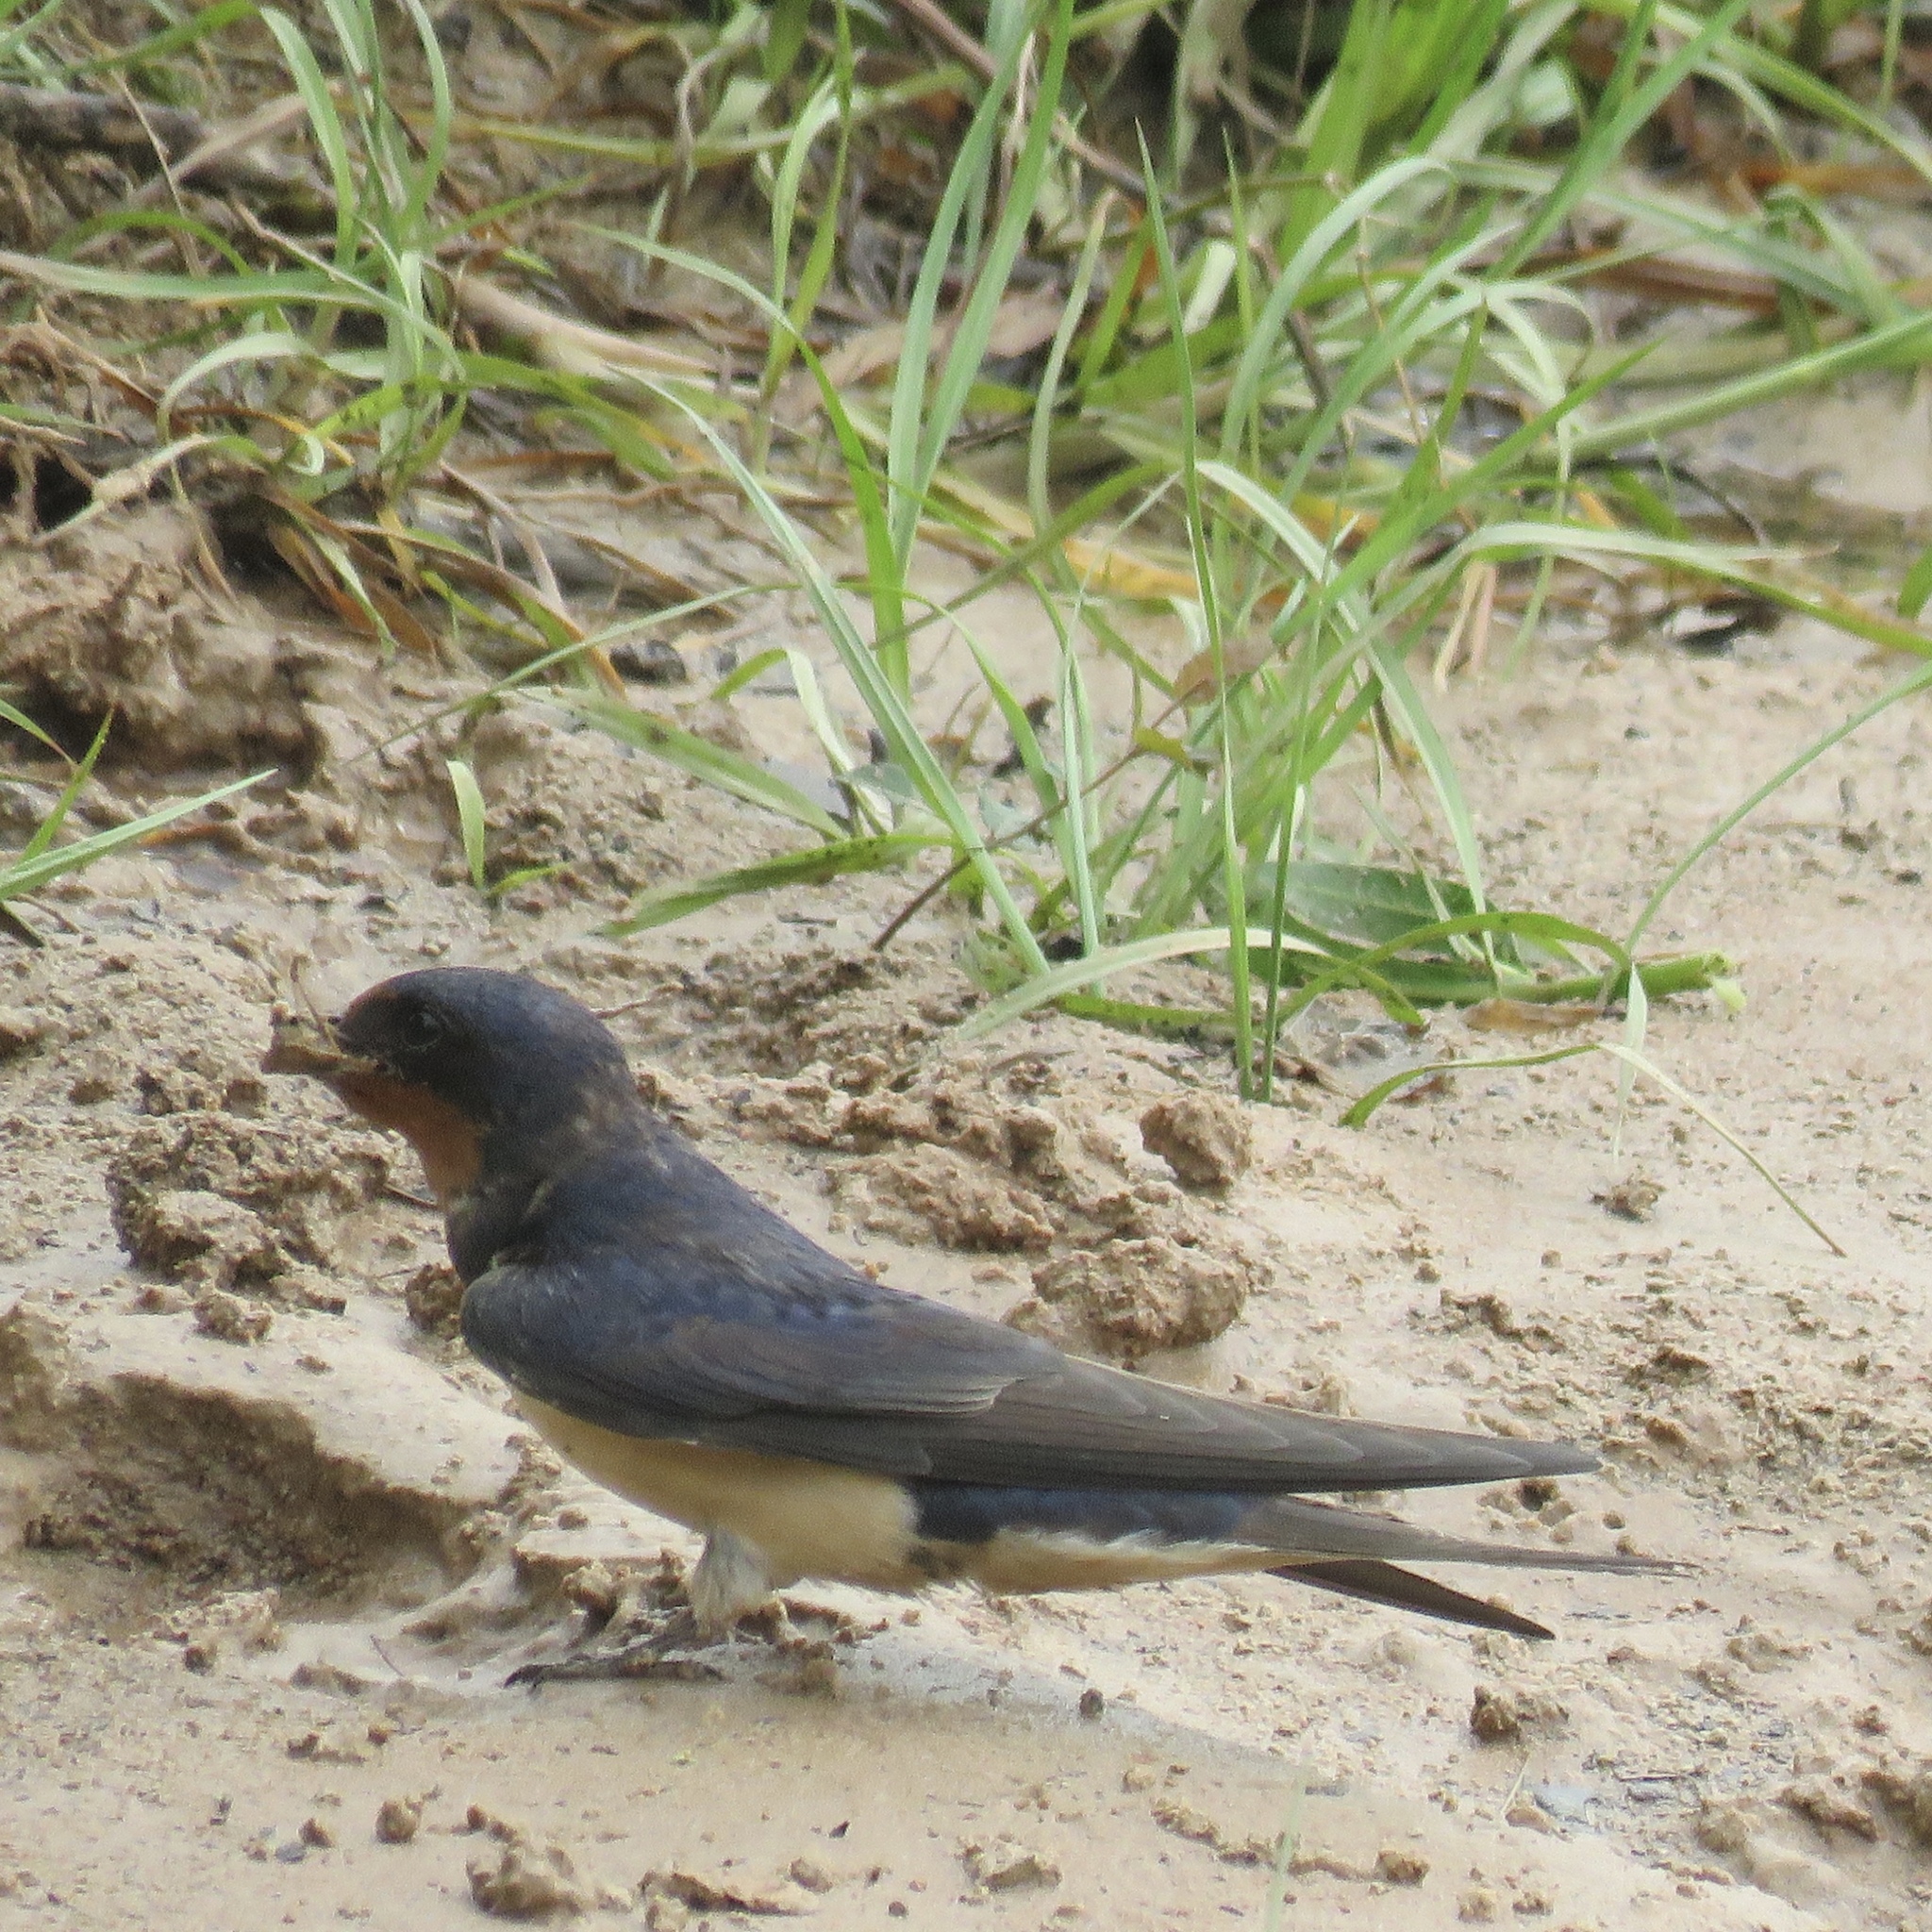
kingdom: Animalia
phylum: Chordata
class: Aves
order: Passeriformes
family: Hirundinidae
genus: Hirundo
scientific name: Hirundo rustica
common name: Barn swallow
